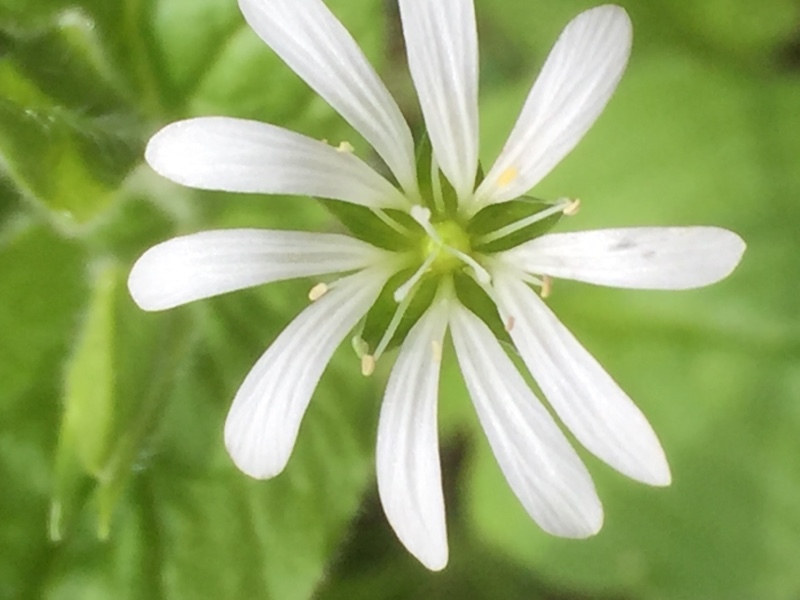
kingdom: Plantae
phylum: Tracheophyta
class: Magnoliopsida
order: Caryophyllales
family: Caryophyllaceae
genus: Stellaria
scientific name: Stellaria nemorum
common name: Wood stitchwort
